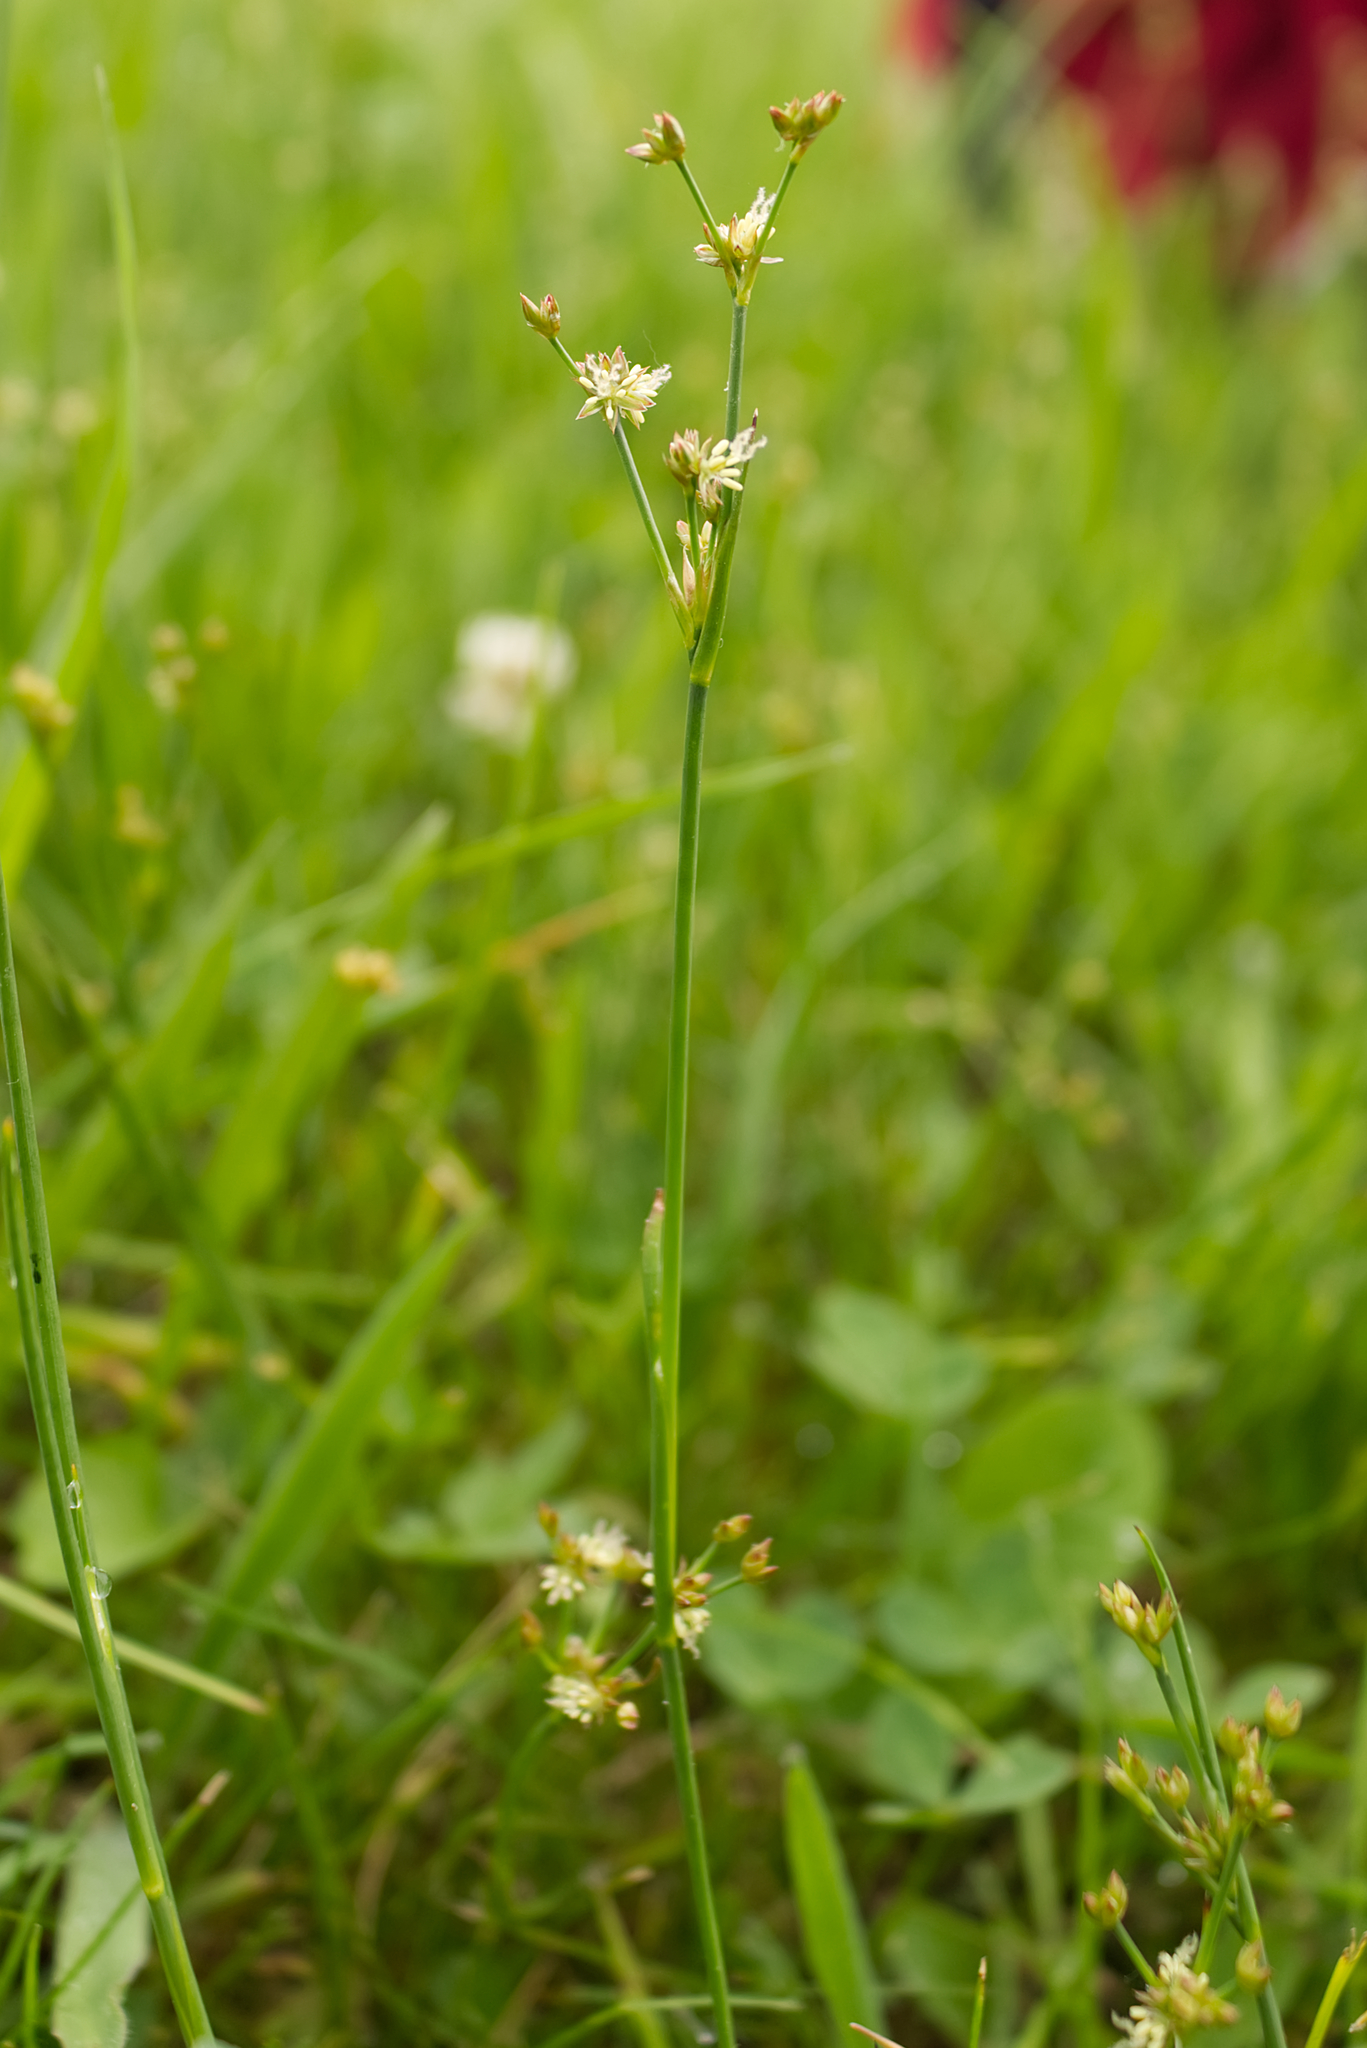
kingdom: Plantae
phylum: Tracheophyta
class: Liliopsida
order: Poales
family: Juncaceae
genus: Juncus
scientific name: Juncus articulatus
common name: Jointed rush
